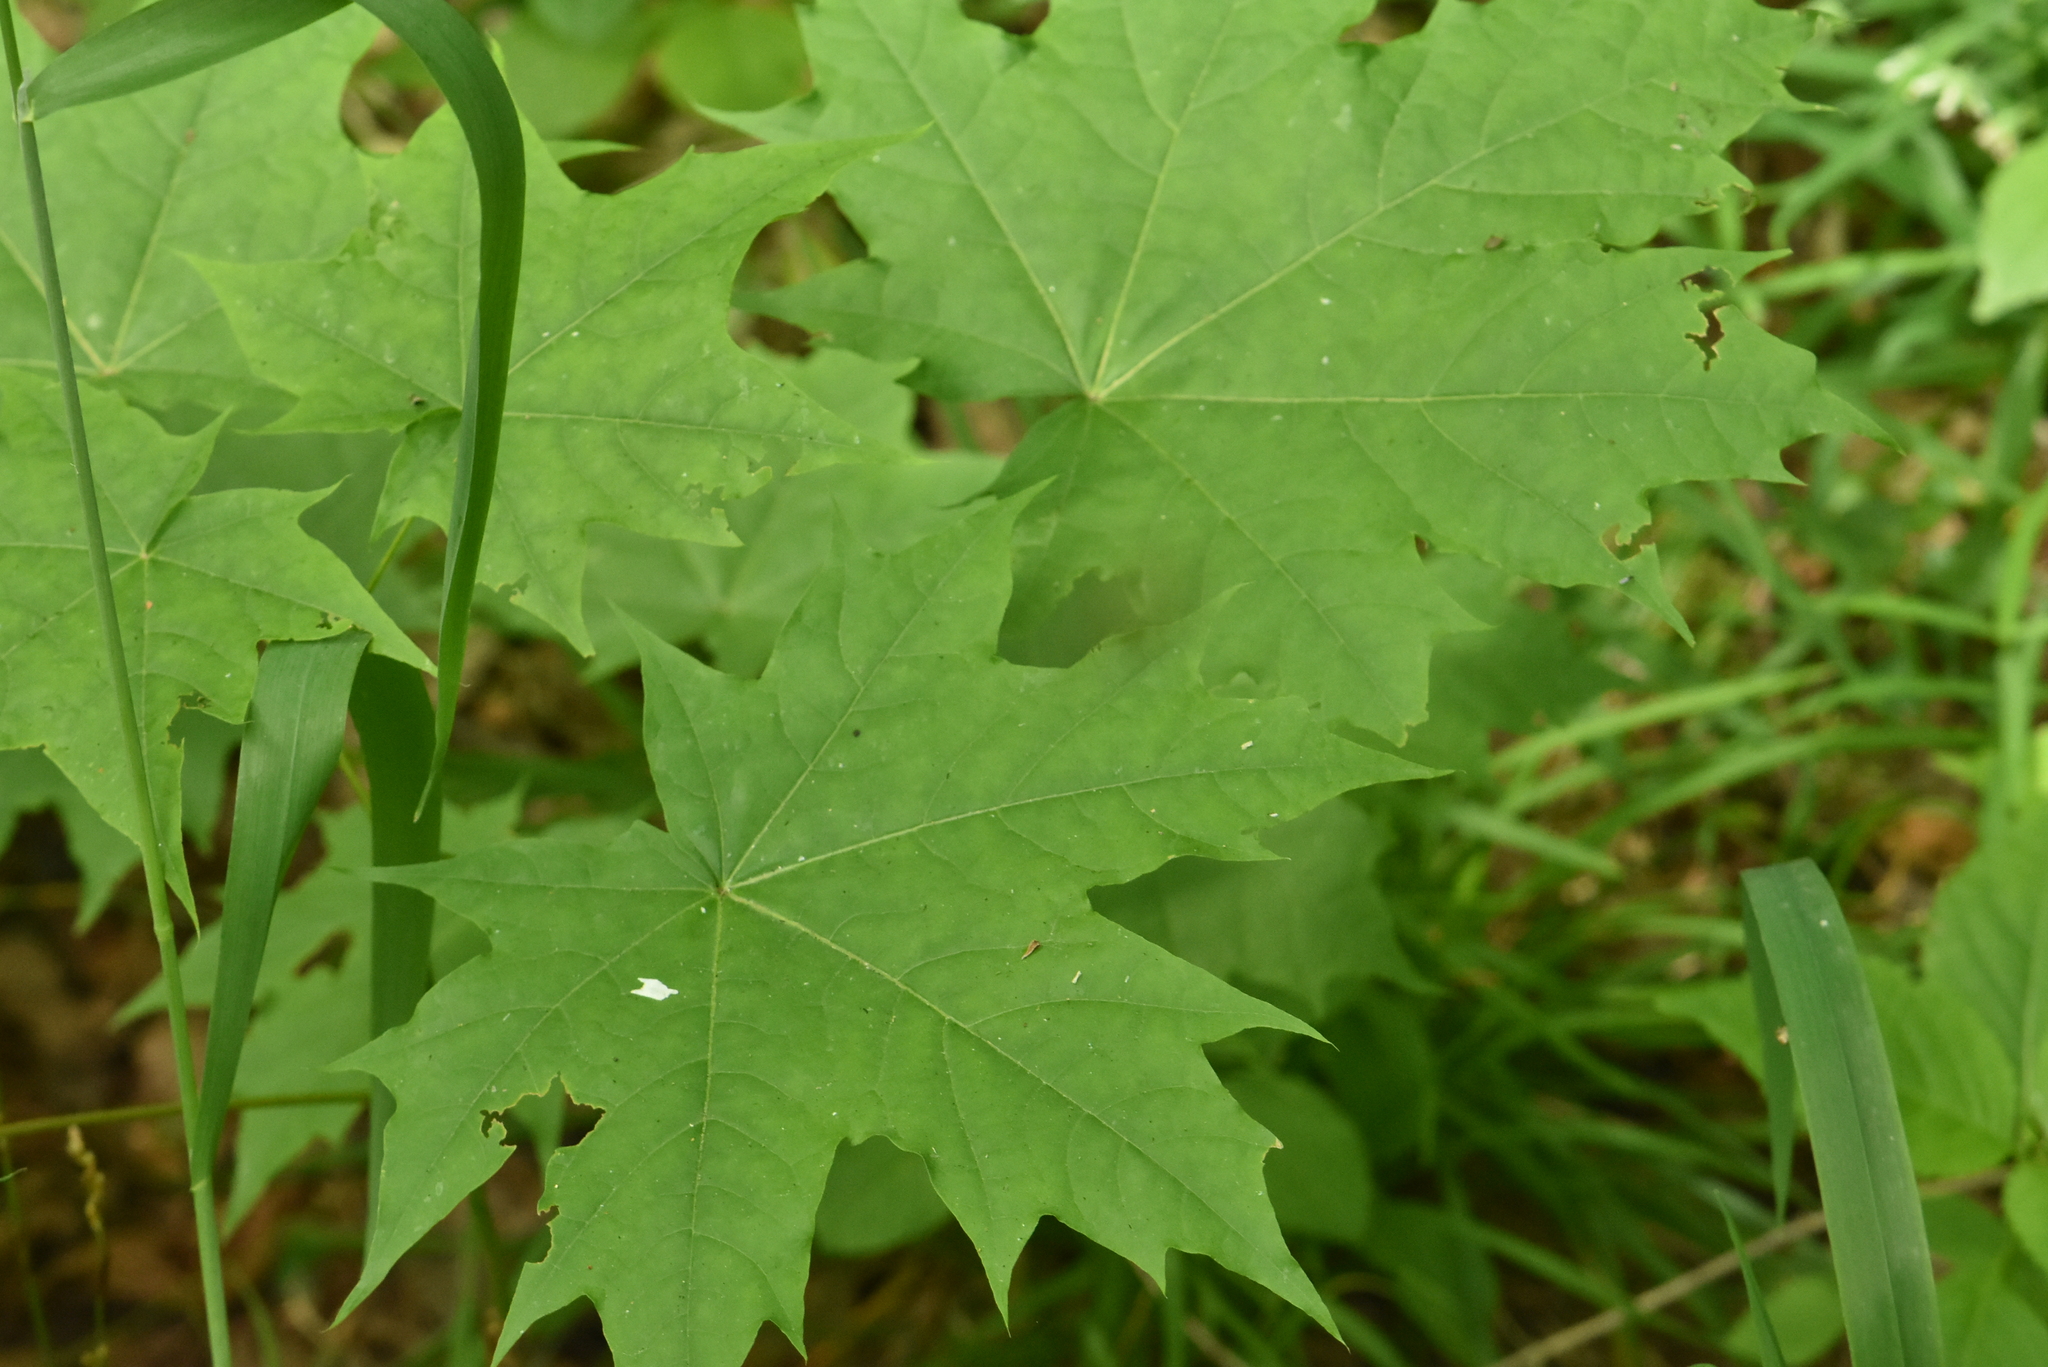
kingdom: Plantae
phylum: Tracheophyta
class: Magnoliopsida
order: Sapindales
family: Sapindaceae
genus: Acer
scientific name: Acer platanoides
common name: Norway maple
